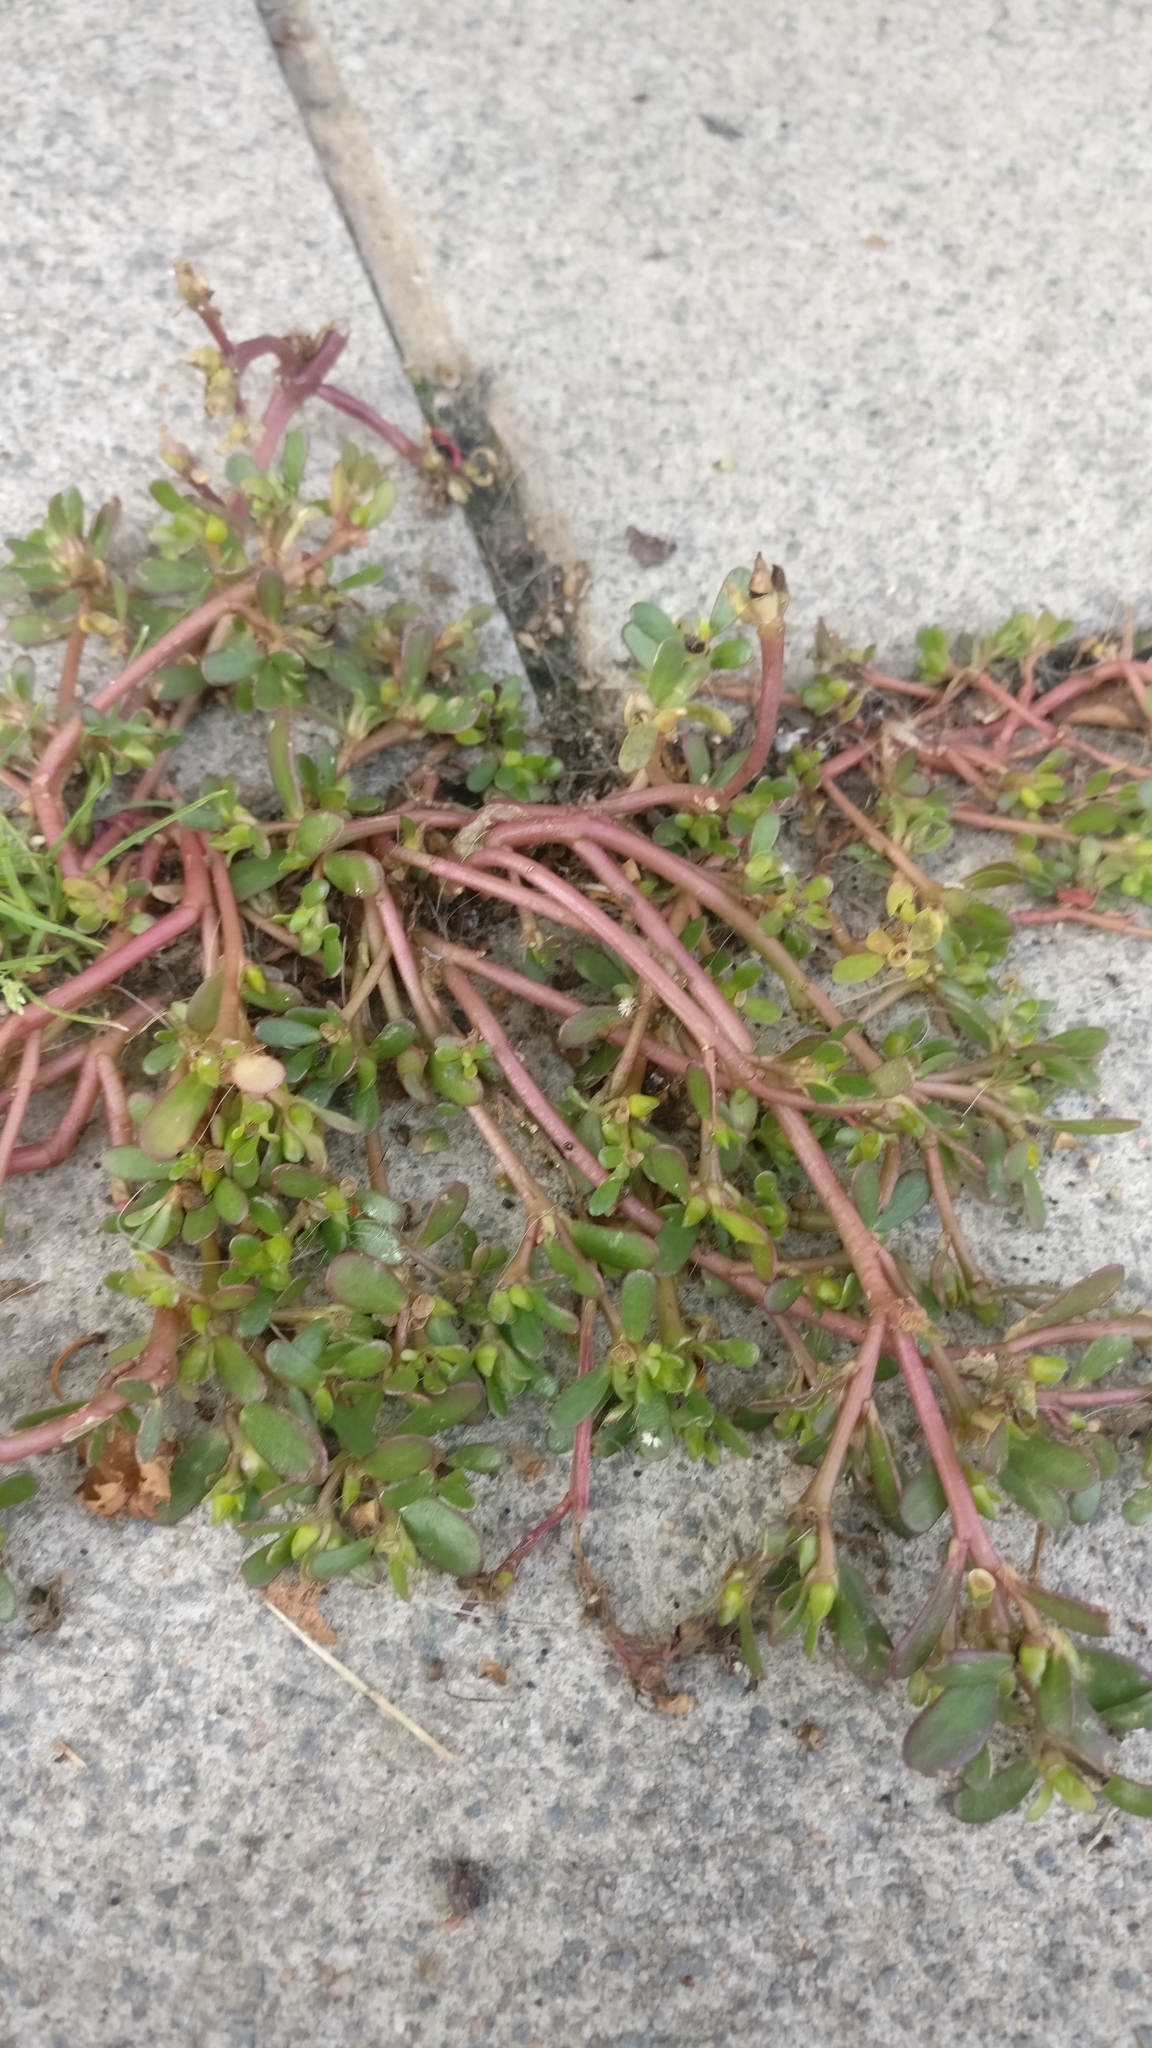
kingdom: Plantae
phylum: Tracheophyta
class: Magnoliopsida
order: Caryophyllales
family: Portulacaceae
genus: Portulaca
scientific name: Portulaca oleracea
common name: Common purslane
